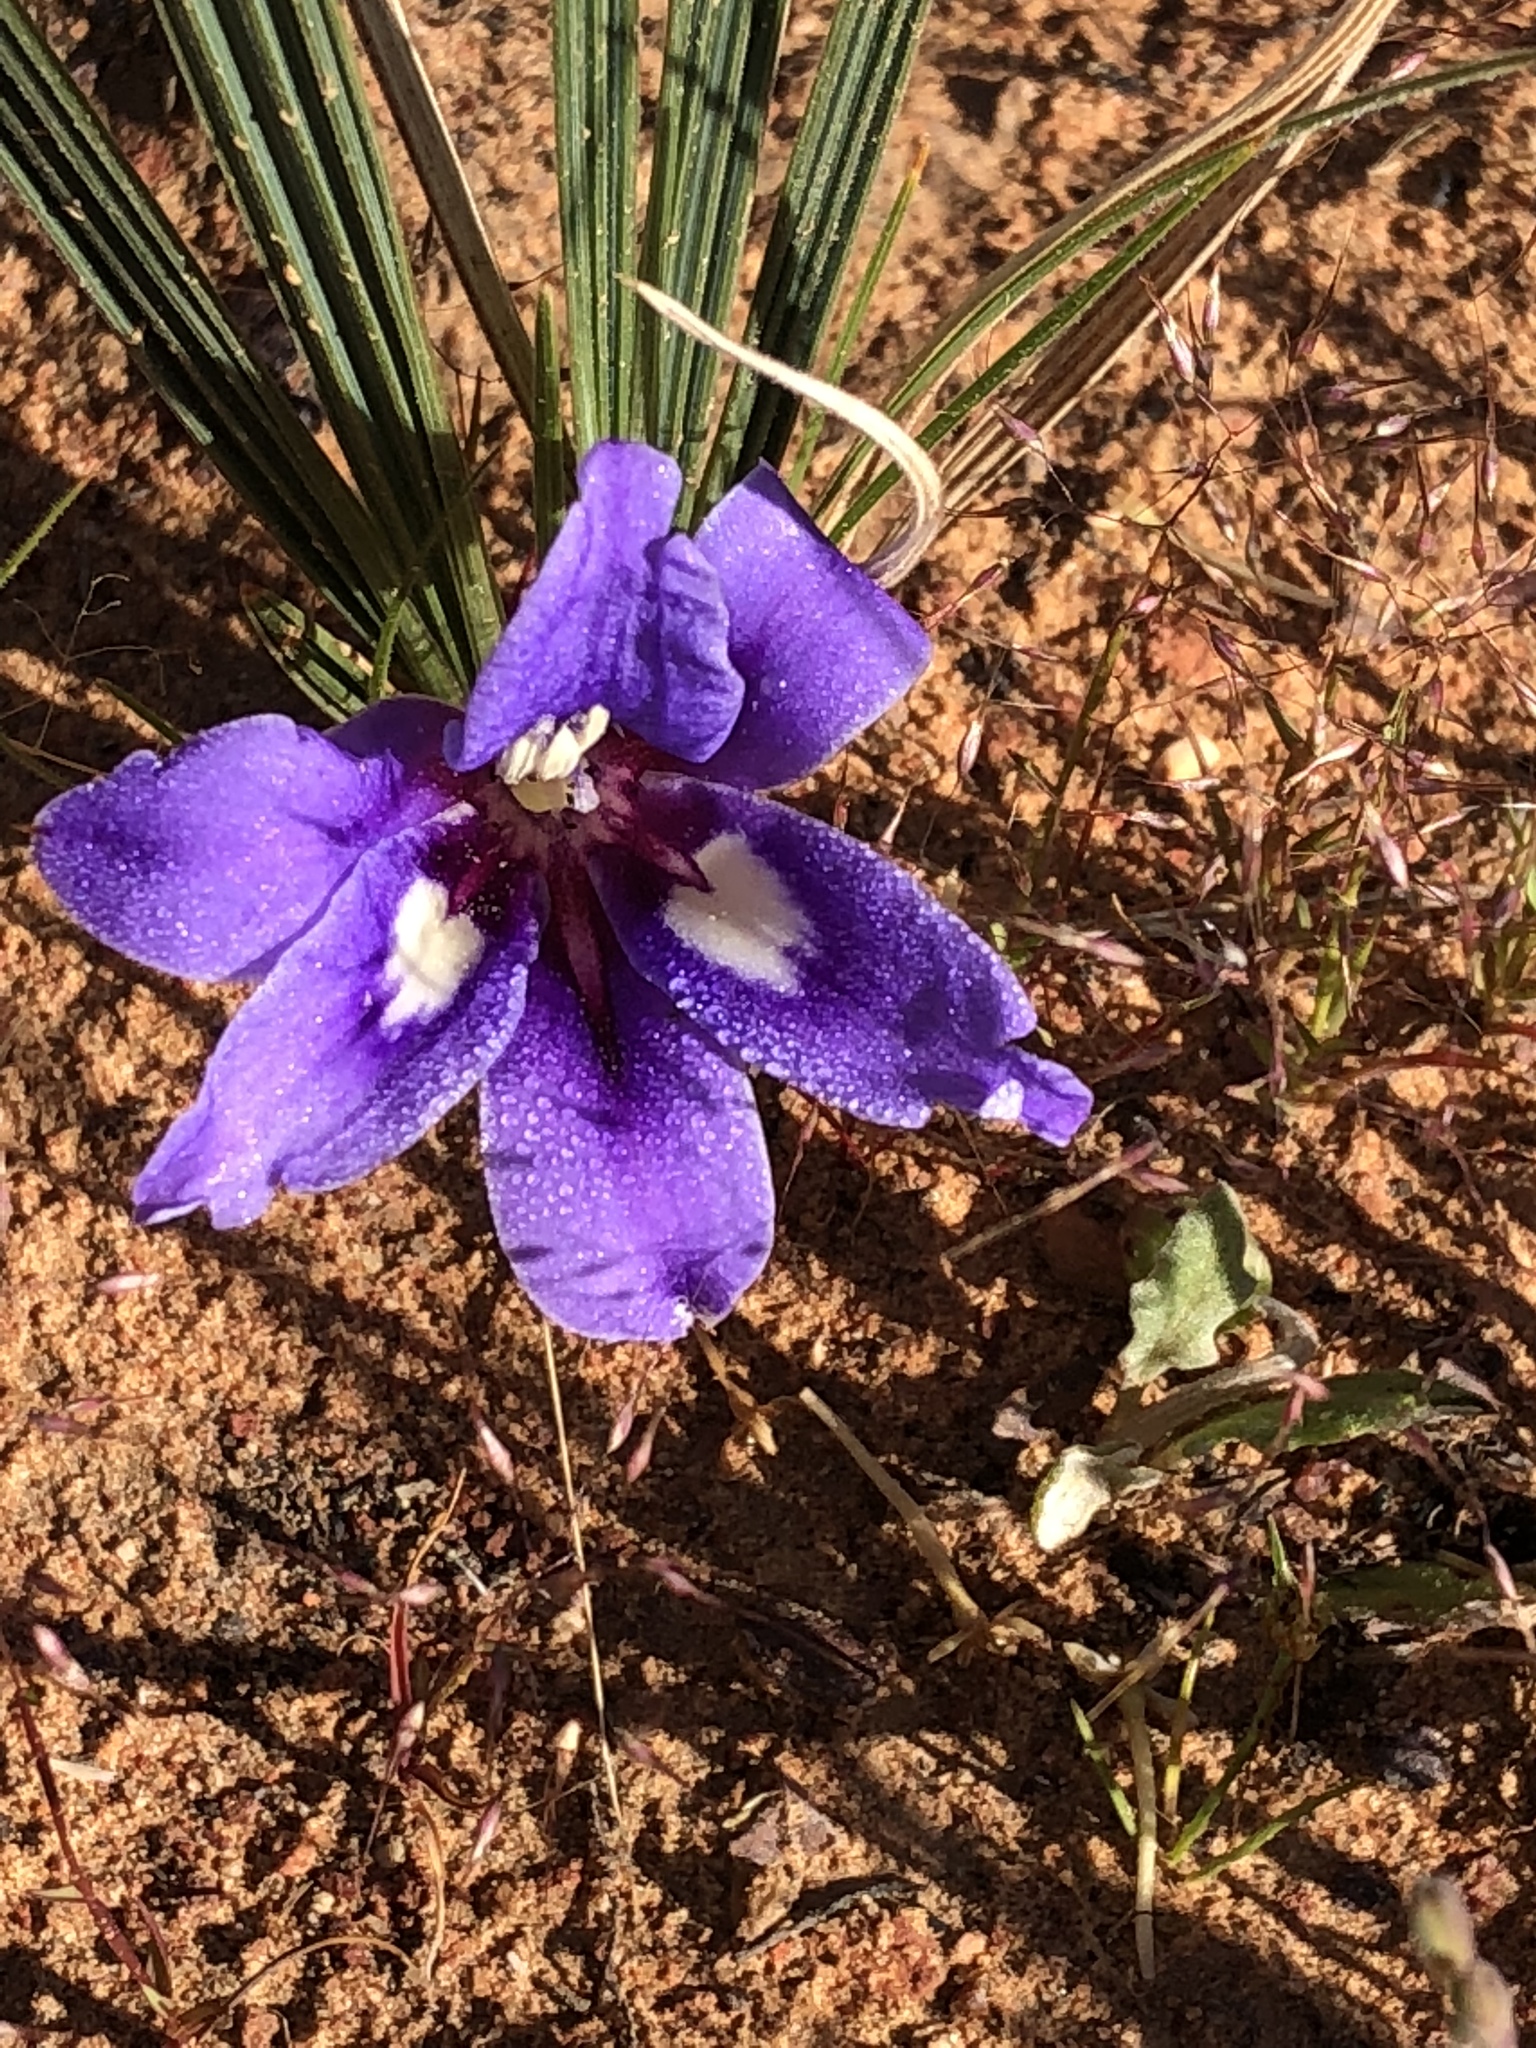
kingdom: Plantae
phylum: Tracheophyta
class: Liliopsida
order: Asparagales
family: Iridaceae
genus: Babiana
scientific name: Babiana sambucina
